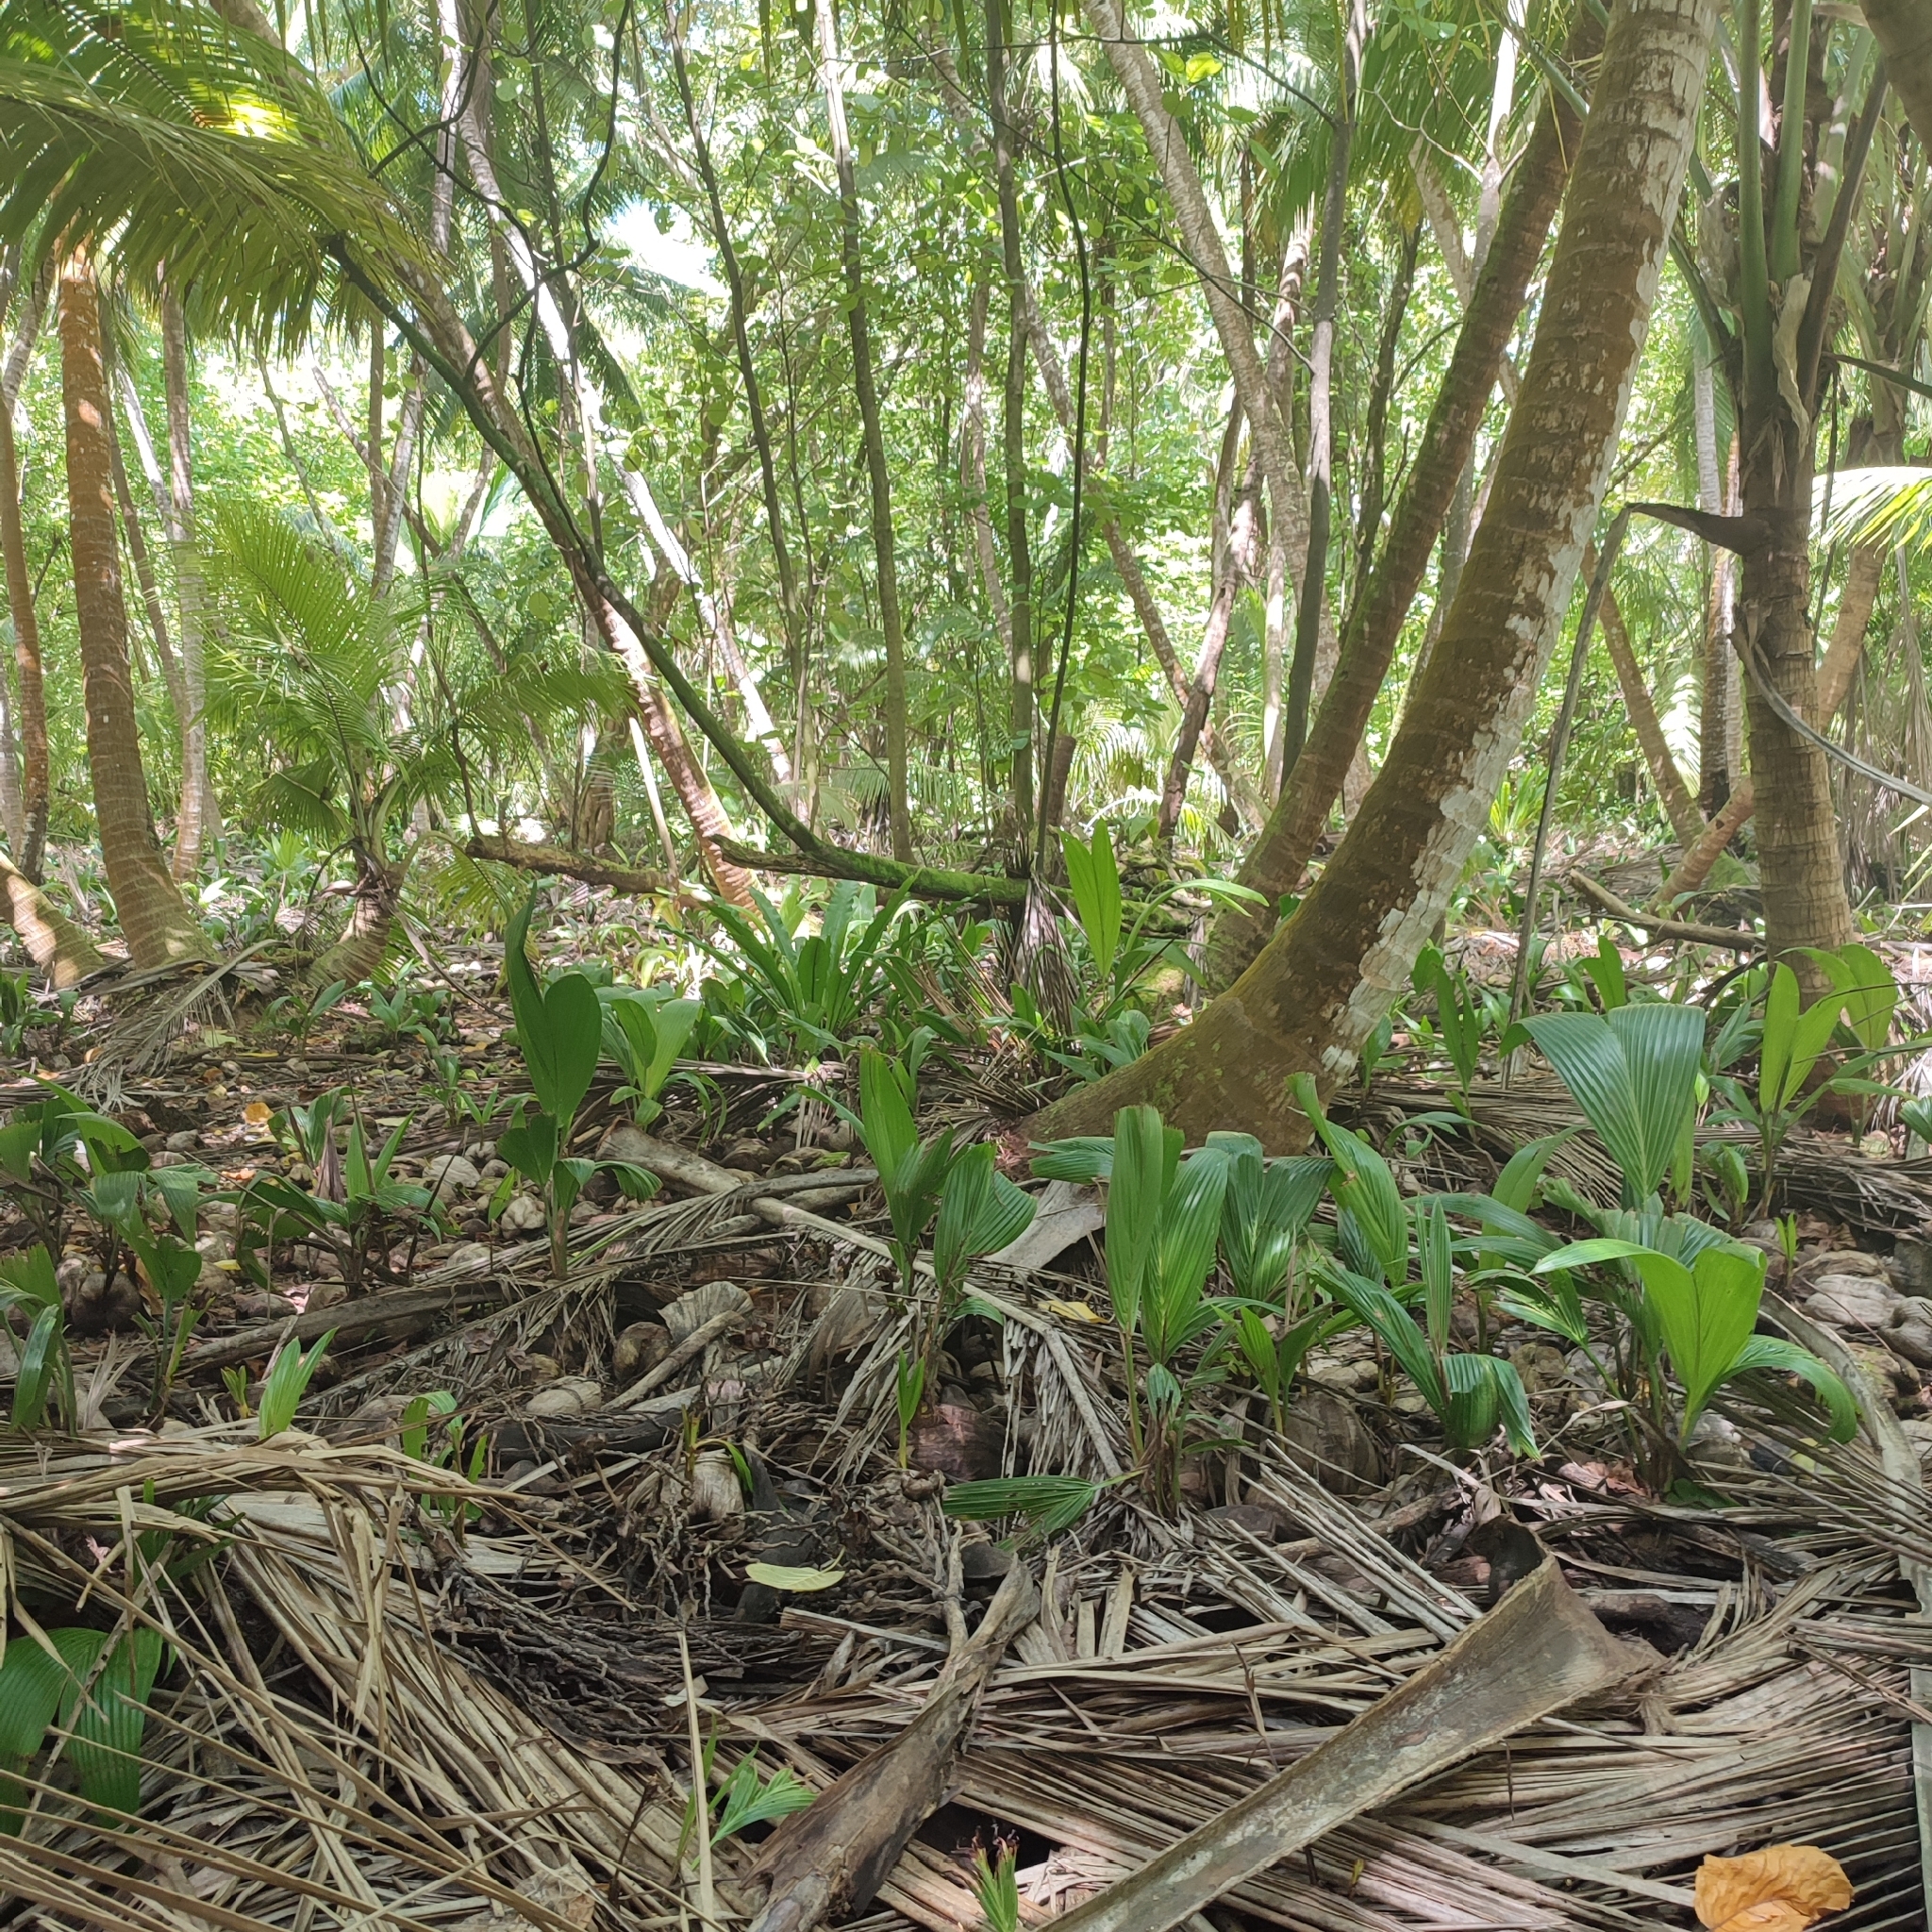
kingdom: Plantae
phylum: Tracheophyta
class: Liliopsida
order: Arecales
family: Arecaceae
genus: Cocos
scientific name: Cocos nucifera
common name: Coconut palm
